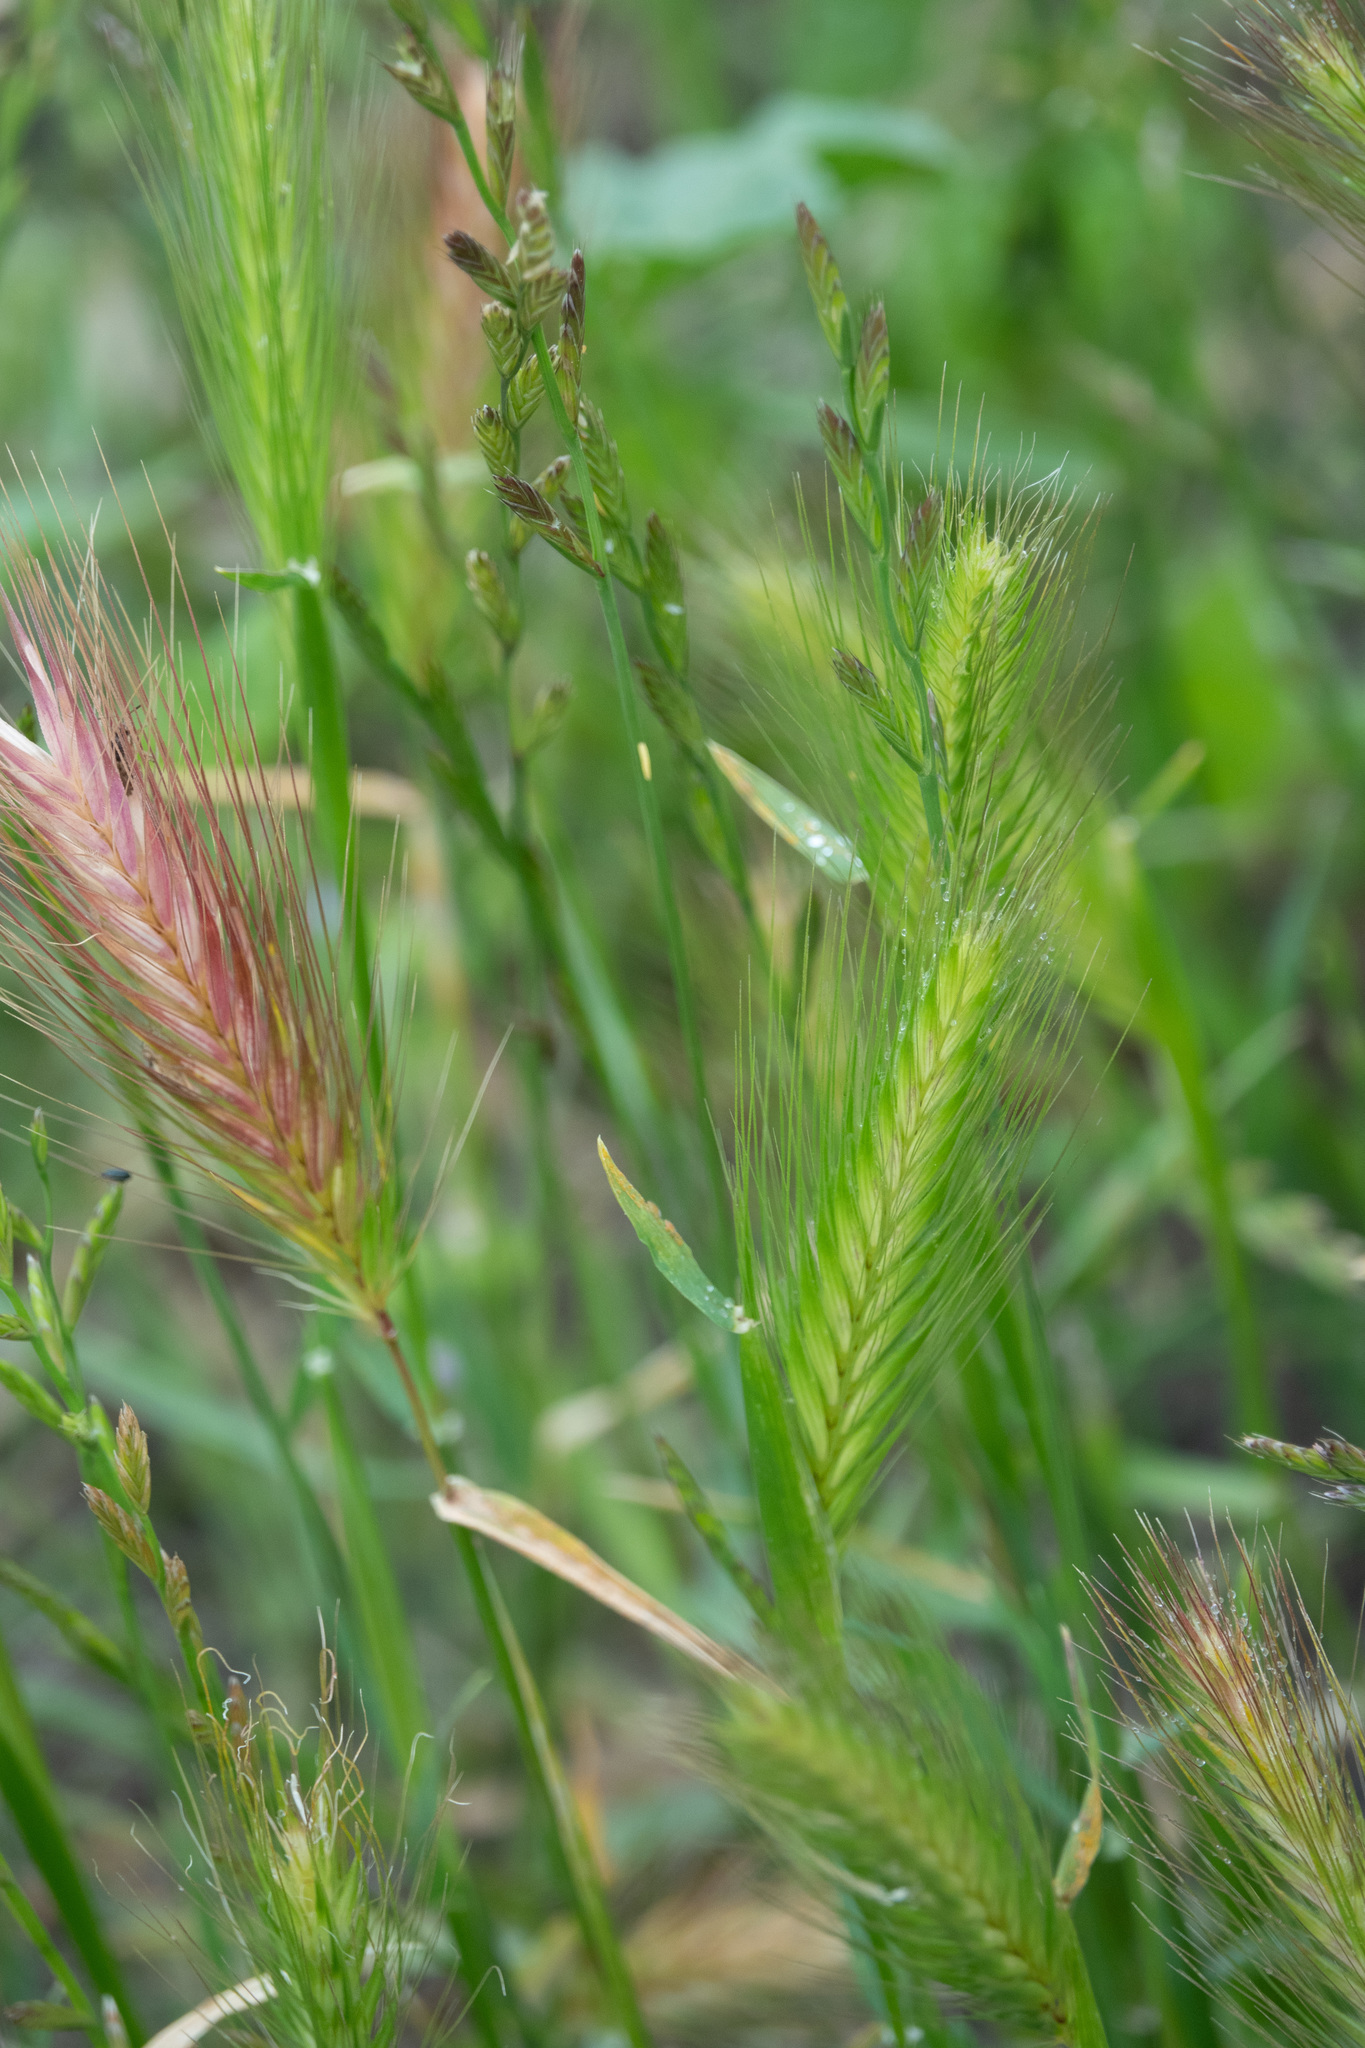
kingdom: Plantae
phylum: Tracheophyta
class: Liliopsida
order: Poales
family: Poaceae
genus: Hordeum
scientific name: Hordeum murinum
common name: Wall barley
